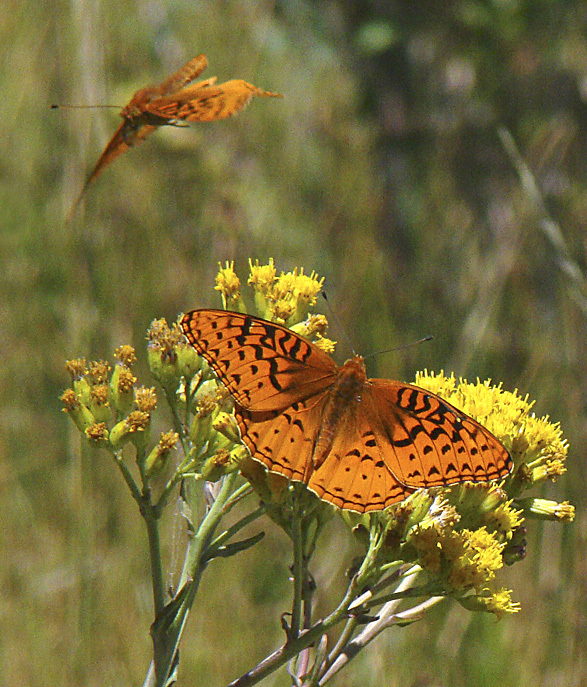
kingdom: Animalia
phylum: Arthropoda
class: Insecta
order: Lepidoptera
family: Nymphalidae
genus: Speyeria
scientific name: Speyeria nokomis
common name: Nokomis fritillary
